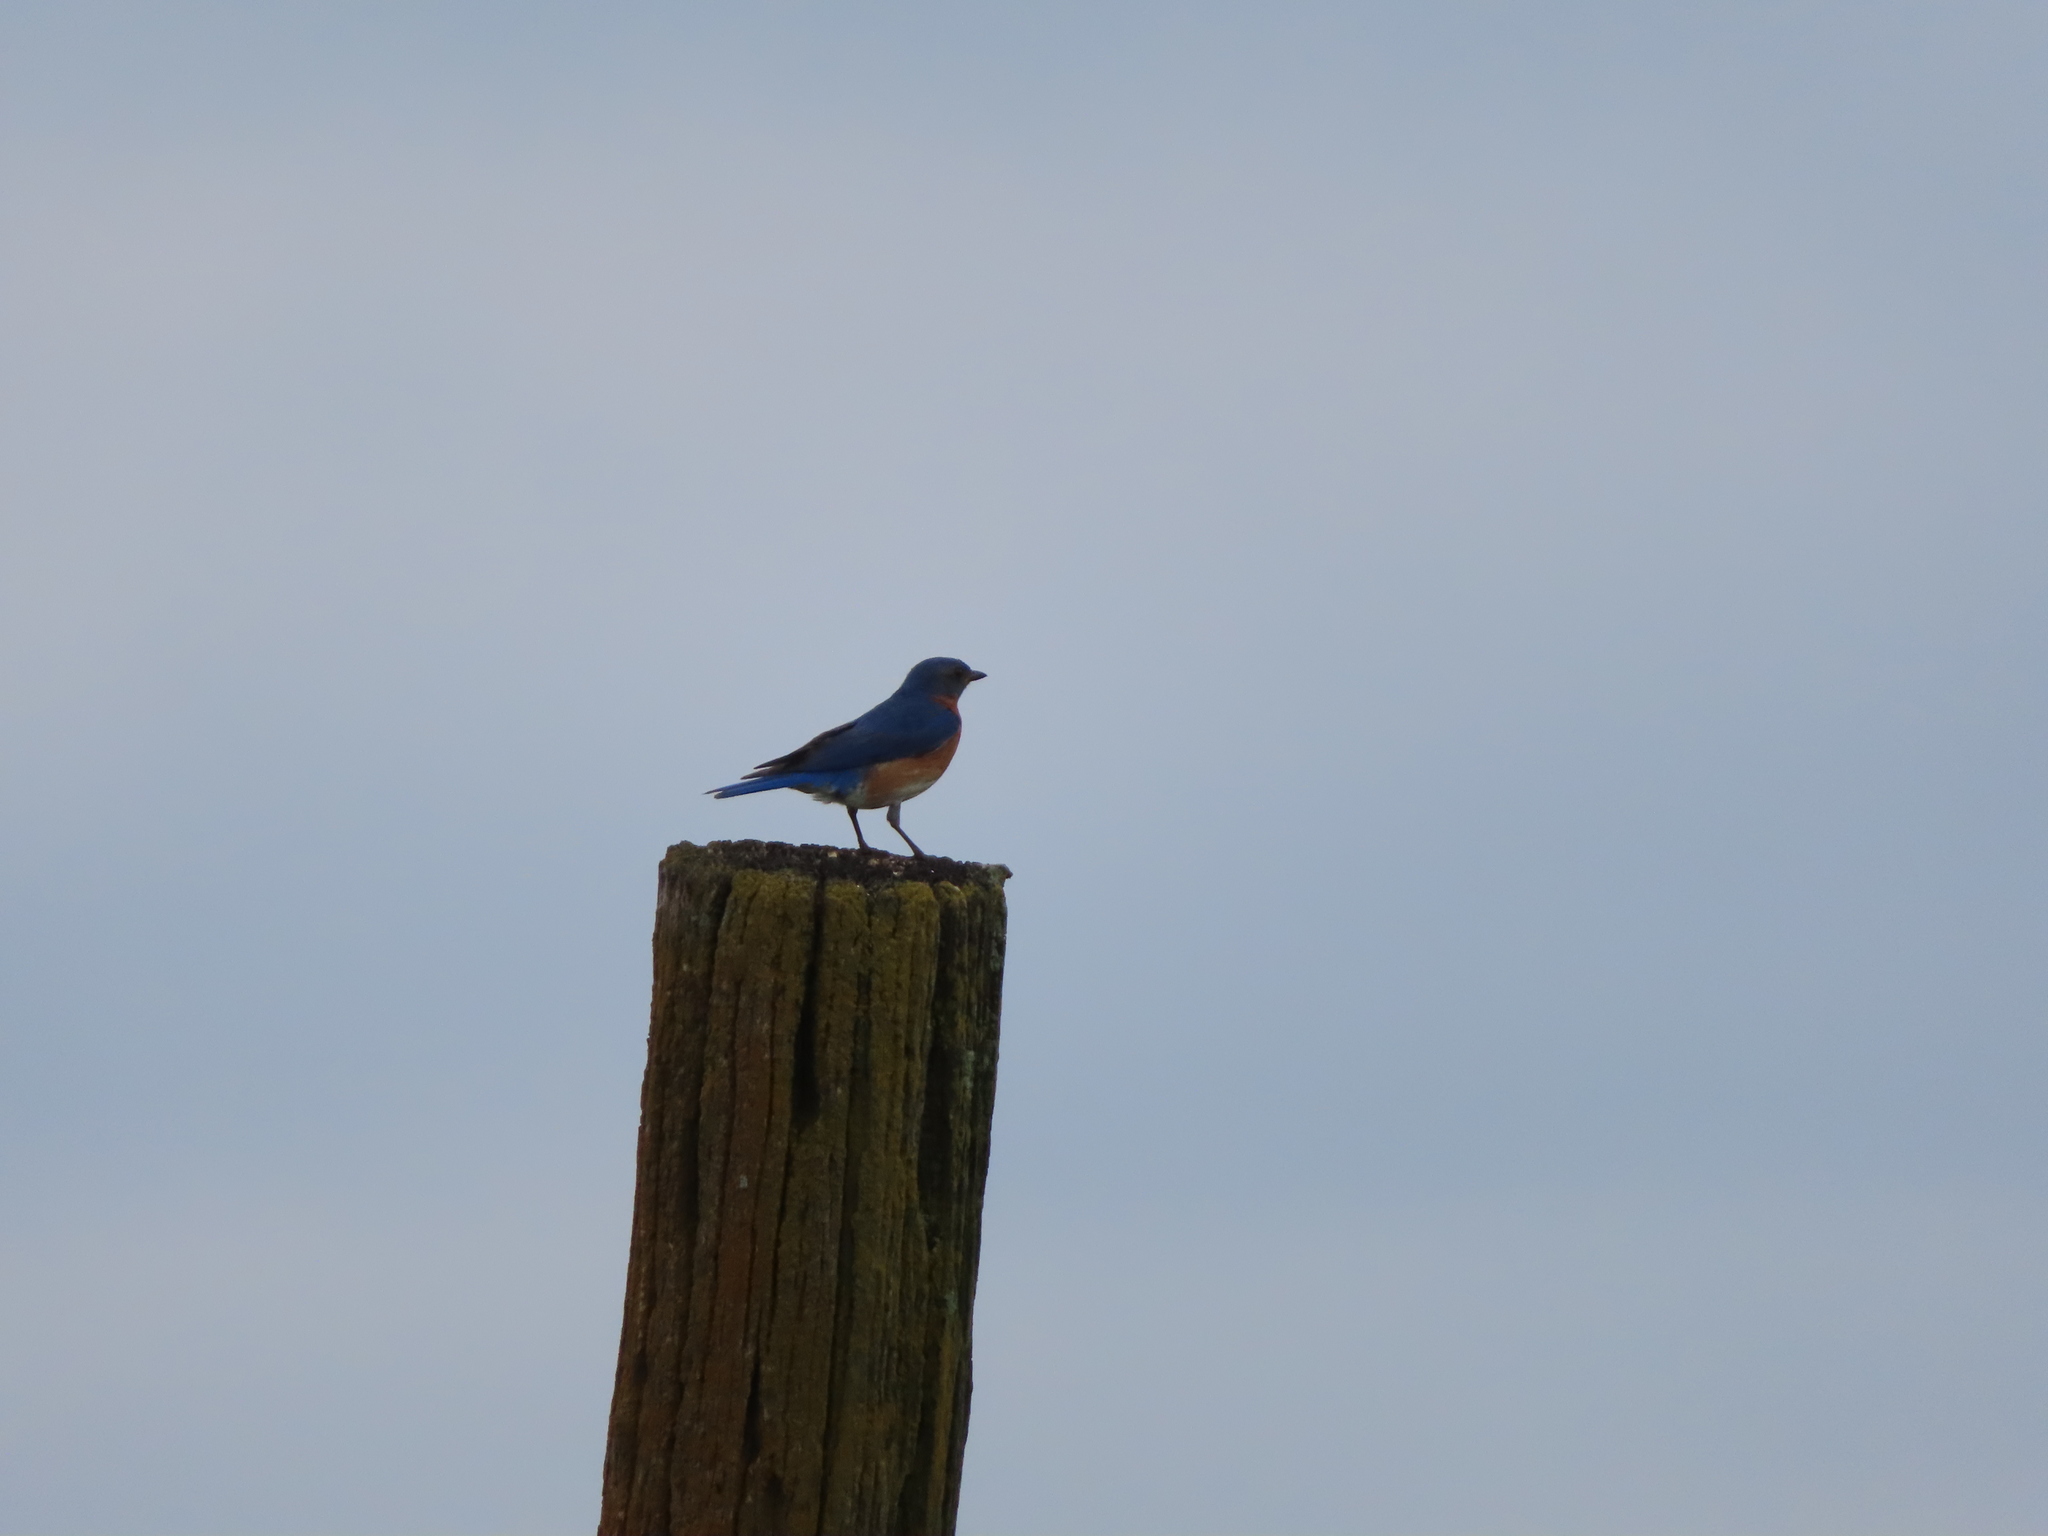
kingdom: Animalia
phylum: Chordata
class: Aves
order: Passeriformes
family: Turdidae
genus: Sialia
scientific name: Sialia sialis
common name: Eastern bluebird
